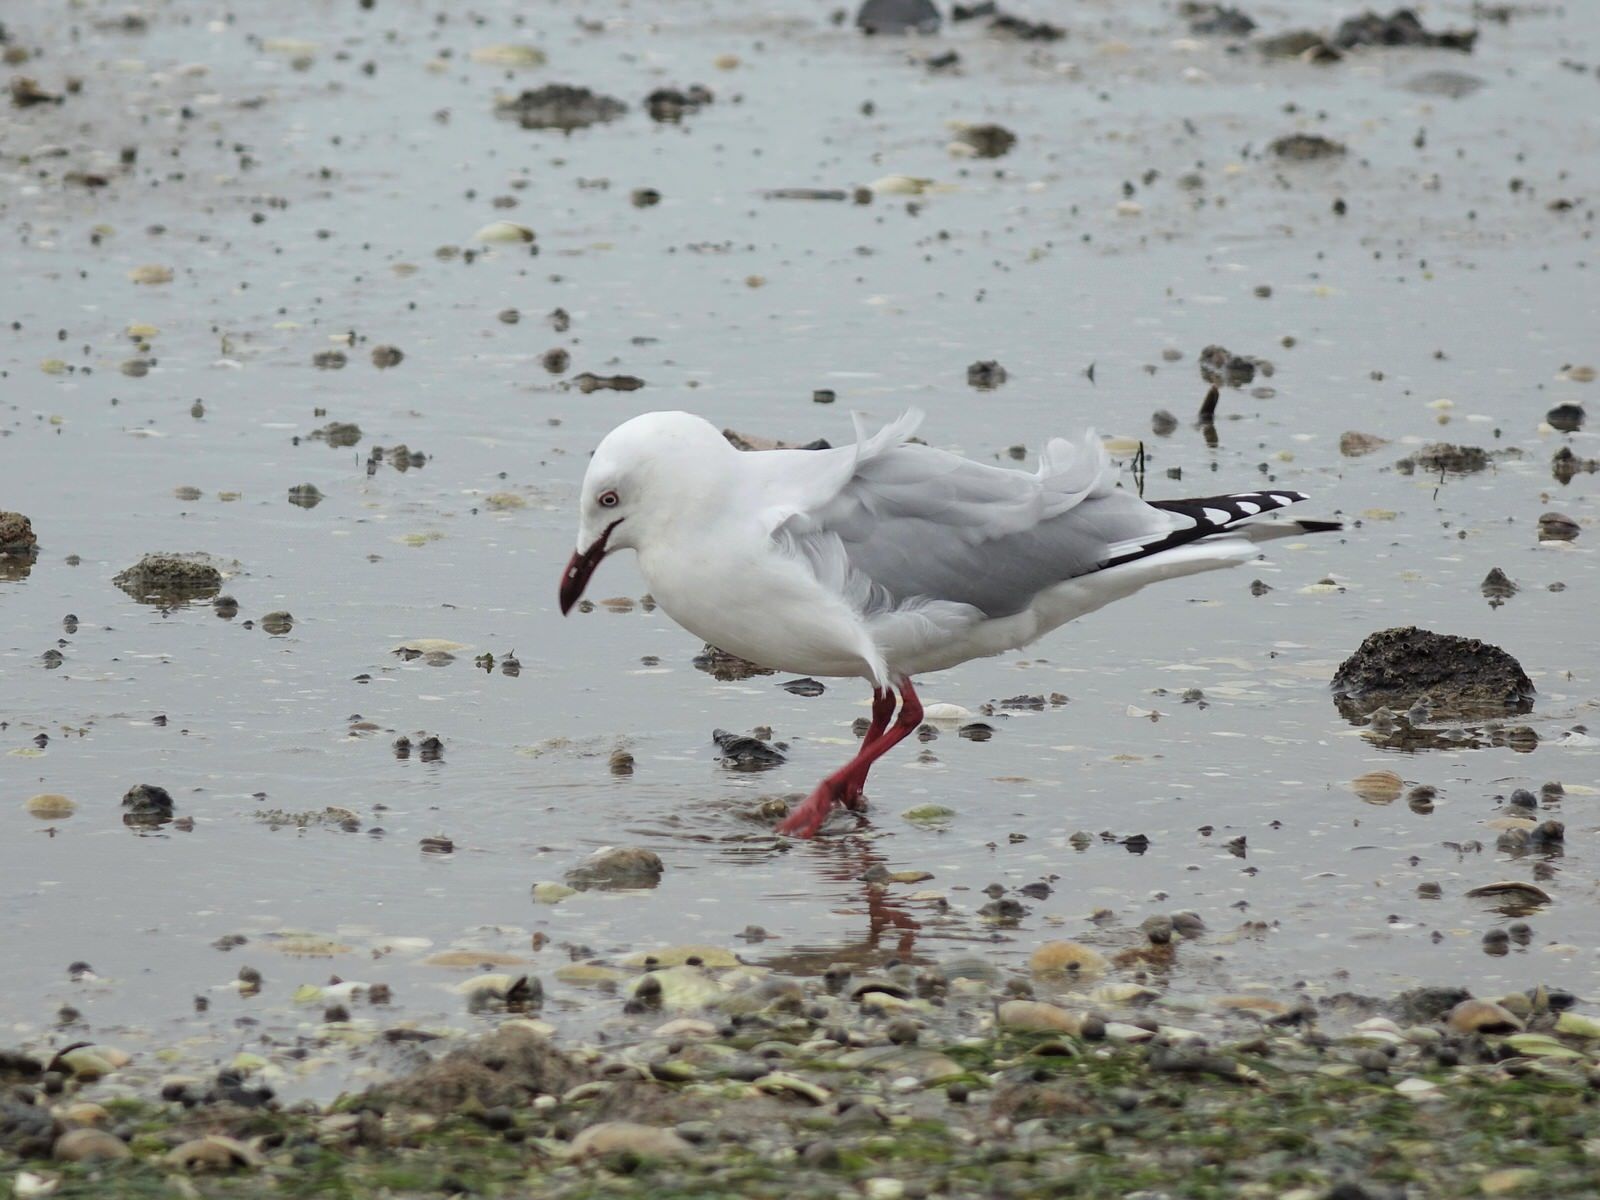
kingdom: Animalia
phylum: Chordata
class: Aves
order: Charadriiformes
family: Laridae
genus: Chroicocephalus
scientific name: Chroicocephalus novaehollandiae
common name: Silver gull
